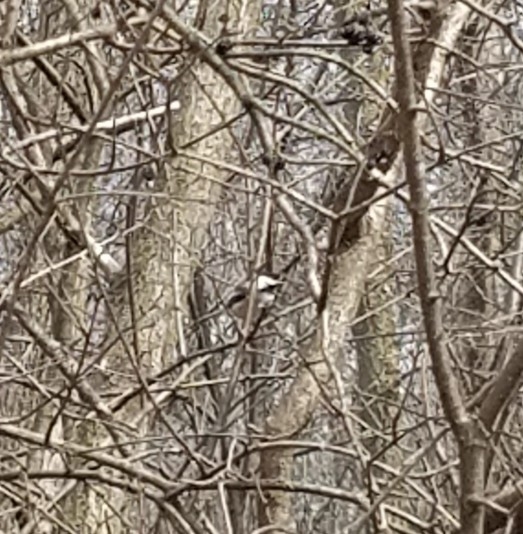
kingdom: Animalia
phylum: Chordata
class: Aves
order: Passeriformes
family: Paridae
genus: Poecile
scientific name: Poecile atricapillus
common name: Black-capped chickadee
